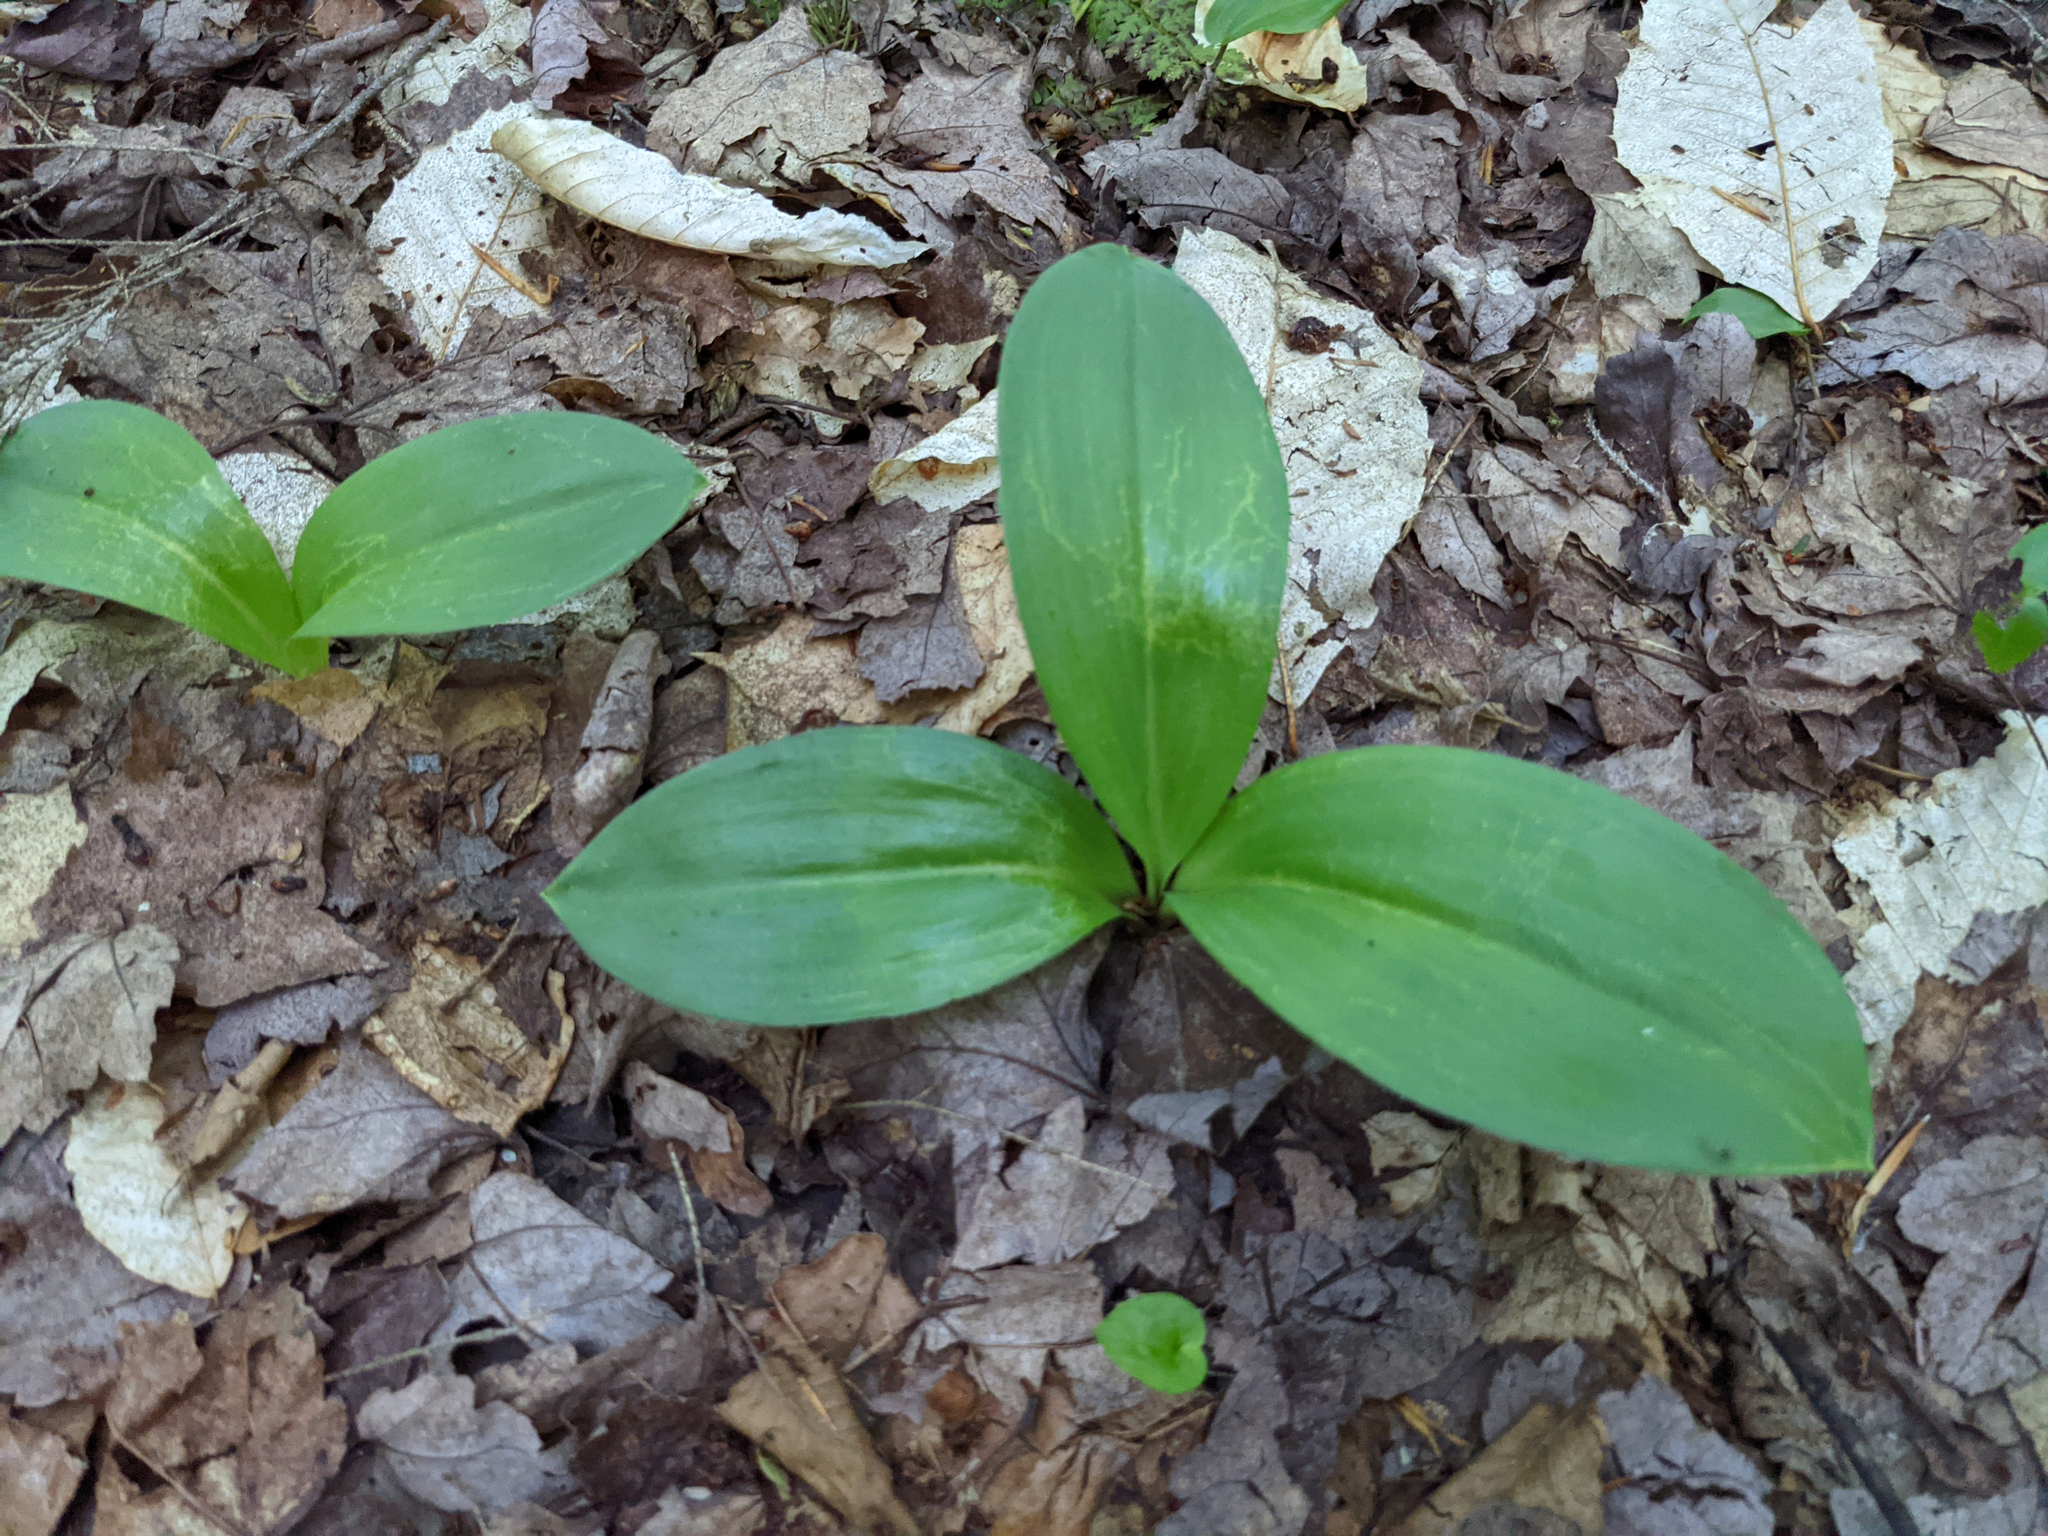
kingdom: Plantae
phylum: Tracheophyta
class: Liliopsida
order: Liliales
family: Liliaceae
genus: Clintonia
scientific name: Clintonia borealis
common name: Yellow clintonia
